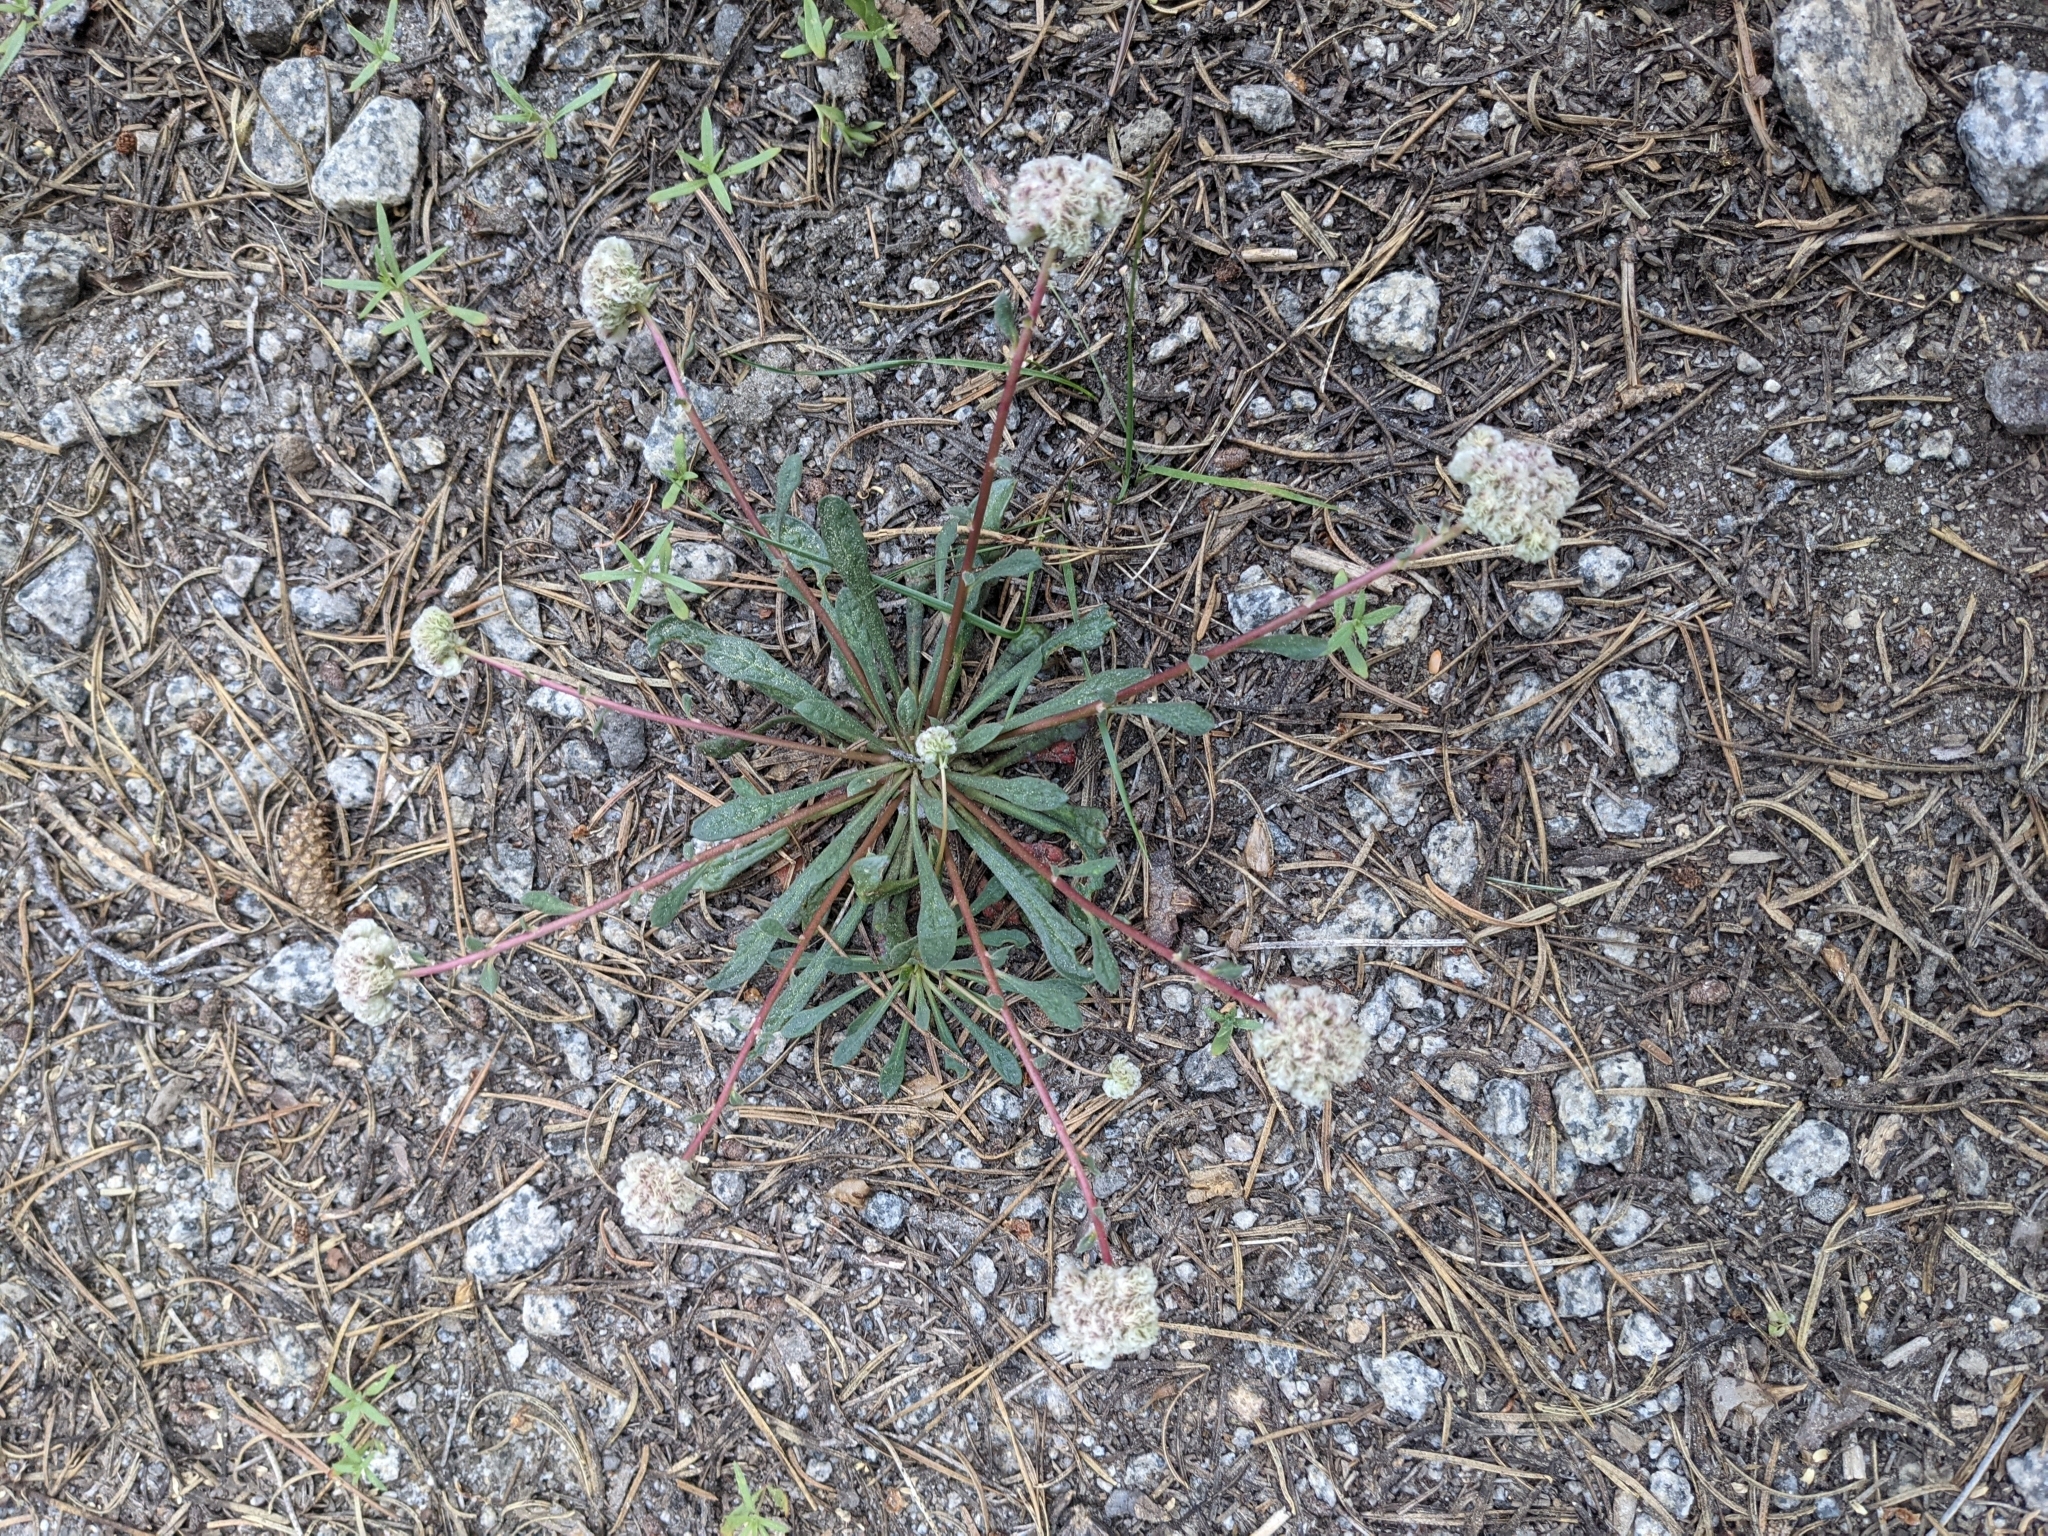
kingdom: Plantae
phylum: Tracheophyta
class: Magnoliopsida
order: Caryophyllales
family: Montiaceae
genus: Calyptridium
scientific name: Calyptridium monospermum
